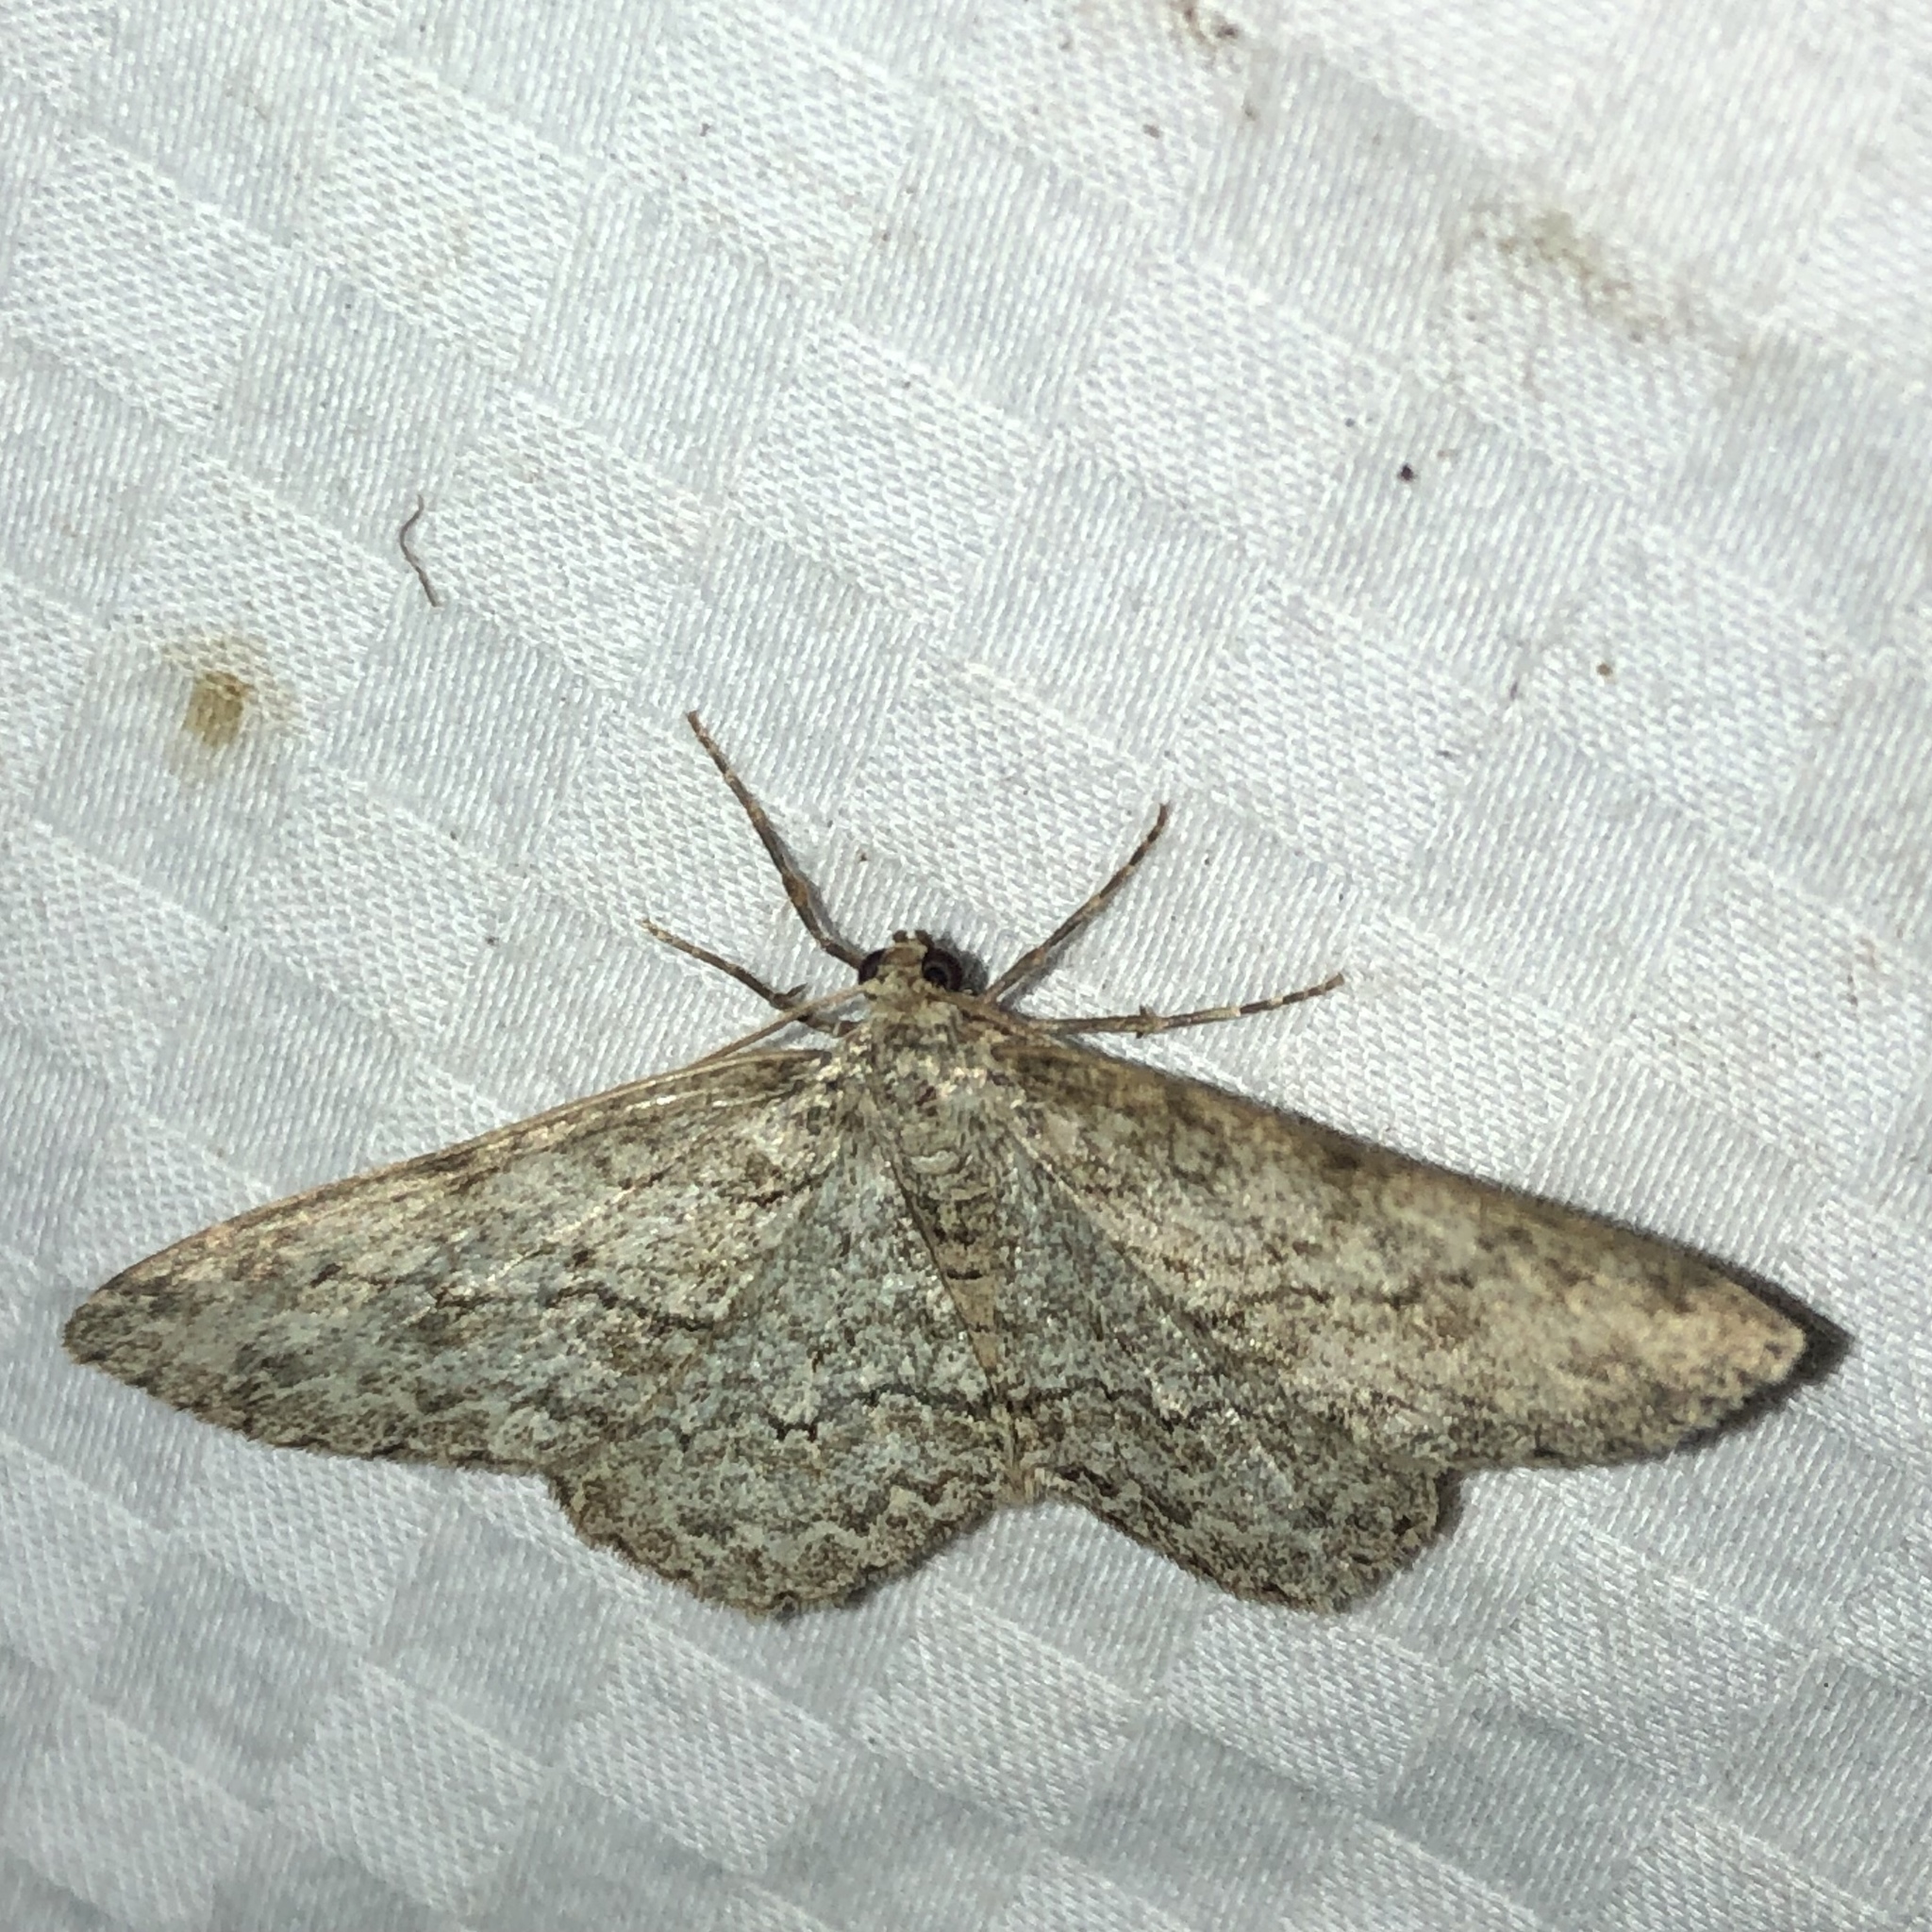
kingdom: Animalia
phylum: Arthropoda
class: Insecta
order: Lepidoptera
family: Geometridae
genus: Ectropis
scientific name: Ectropis crepuscularia
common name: Engrailed
